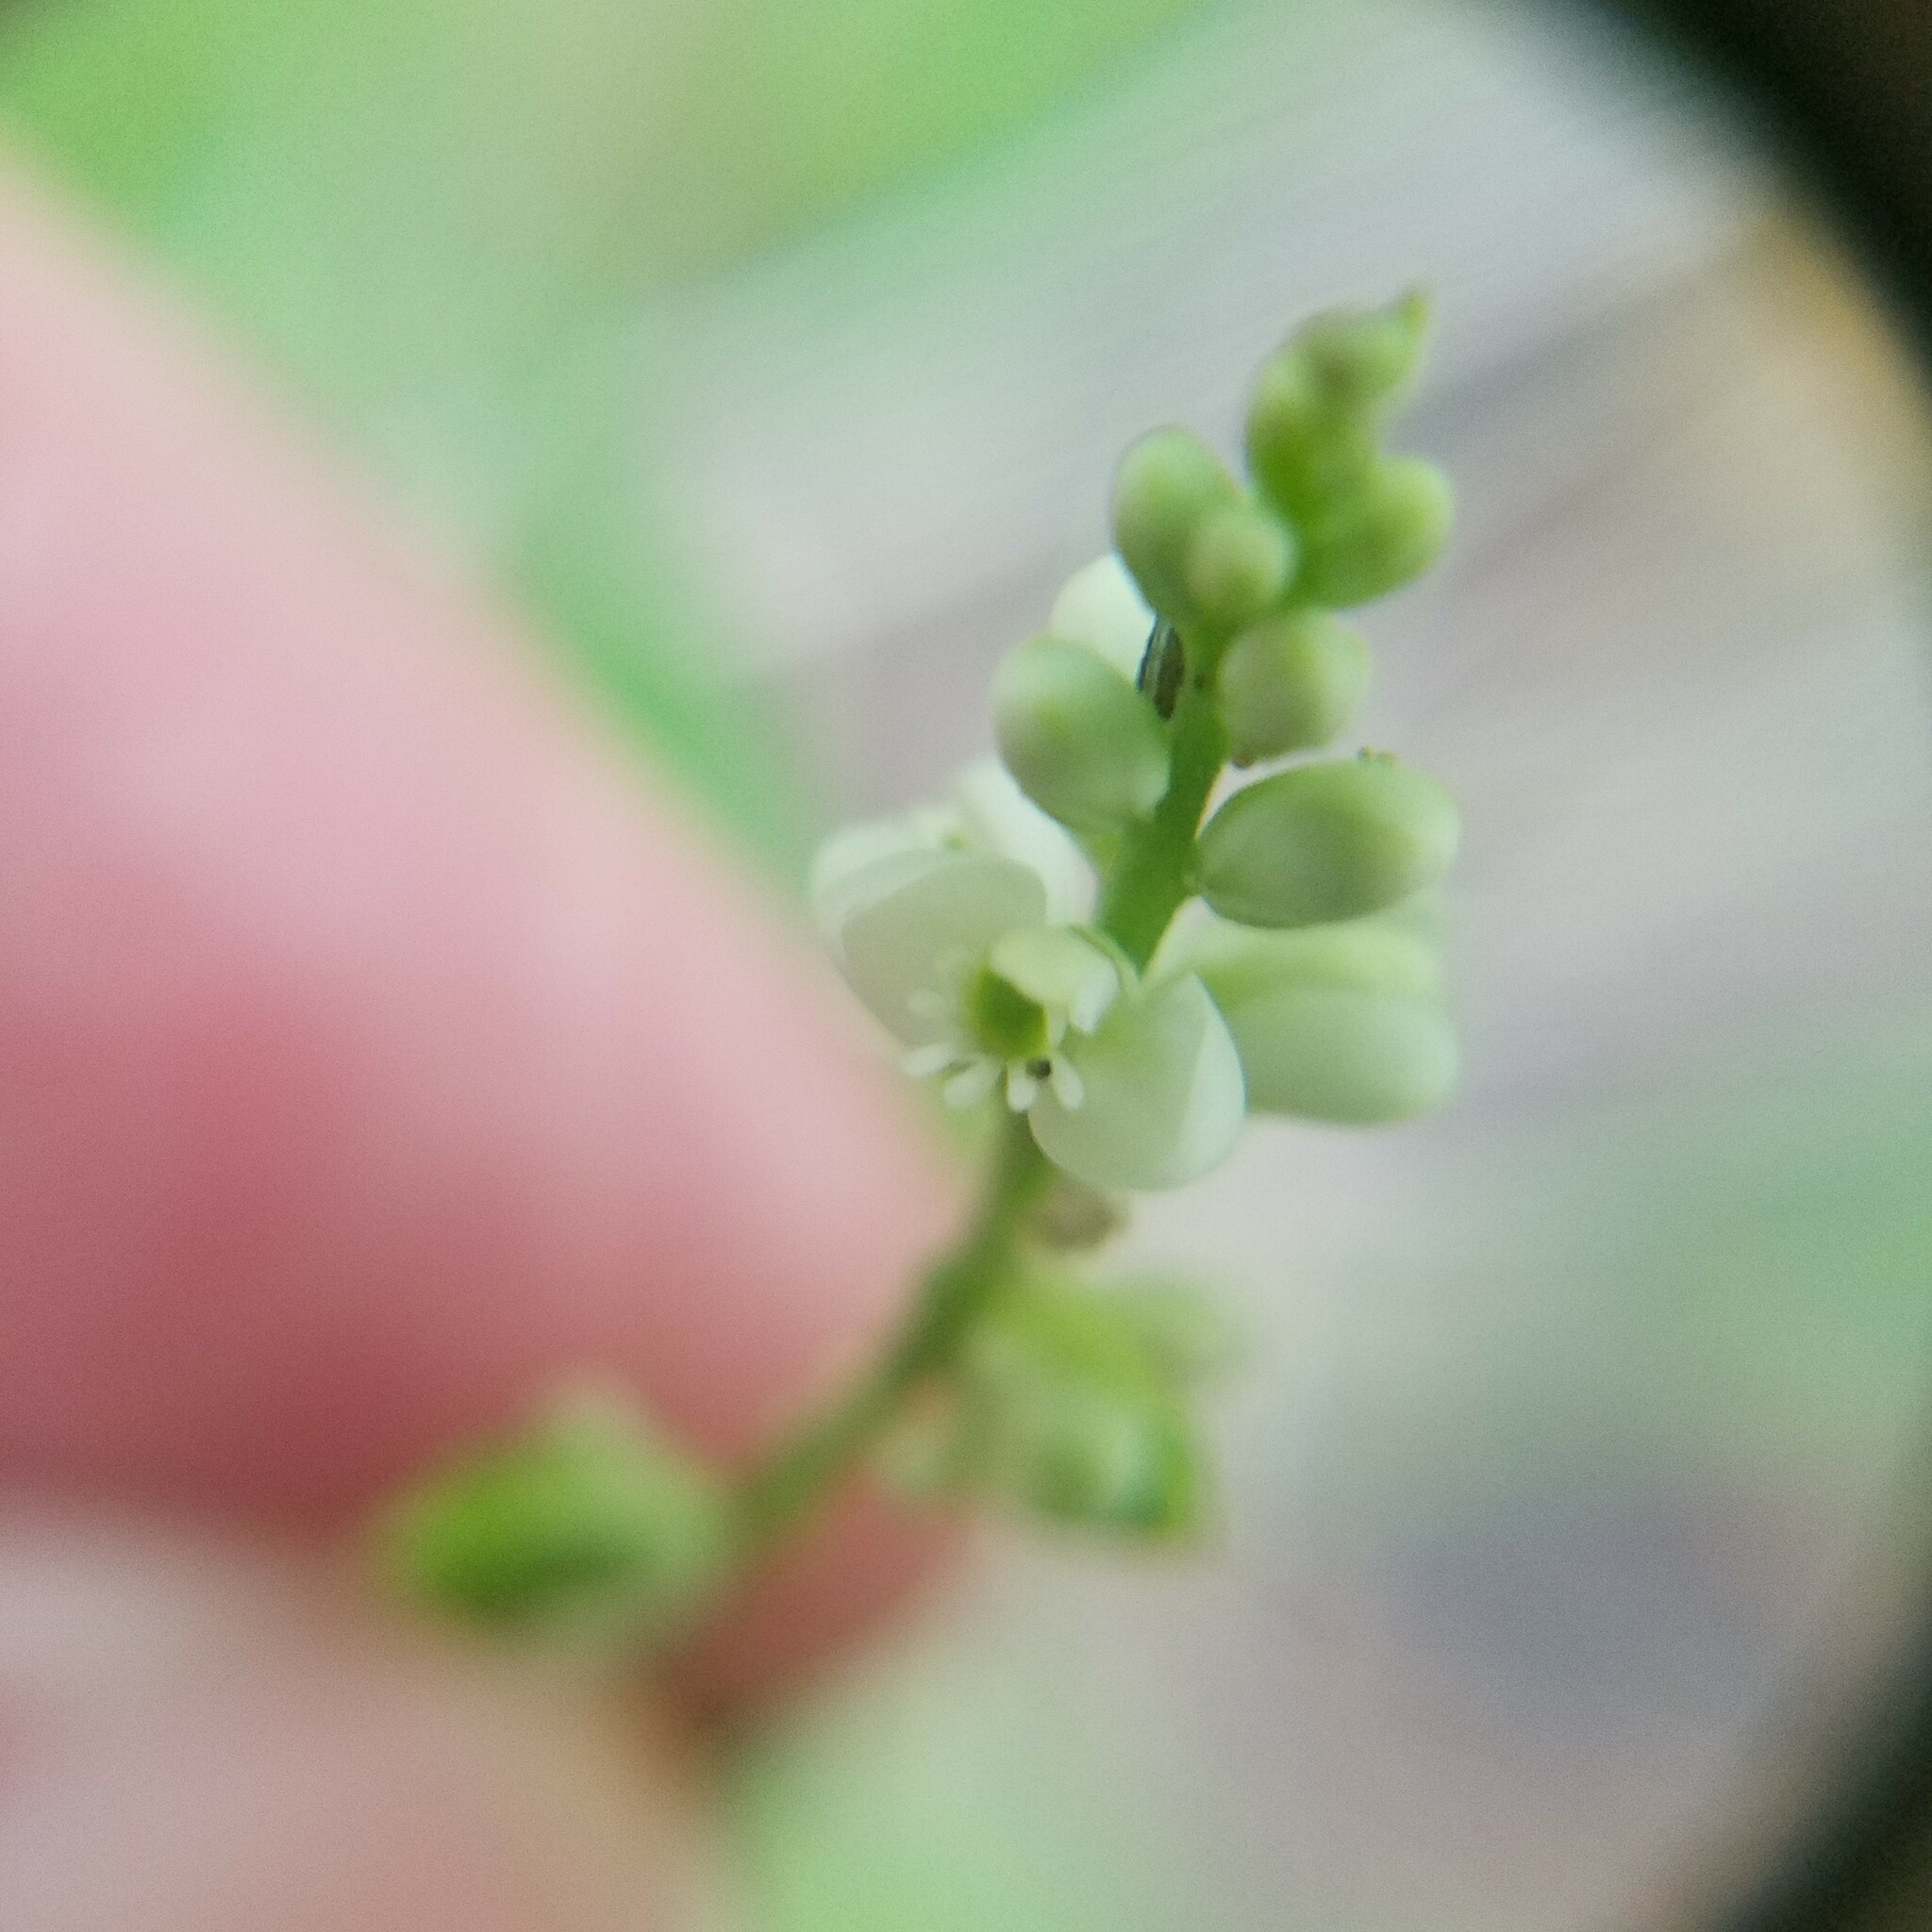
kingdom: Plantae
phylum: Tracheophyta
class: Magnoliopsida
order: Fabales
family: Polygalaceae
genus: Polygala
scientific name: Polygala senega
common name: Seneca snakeroot
